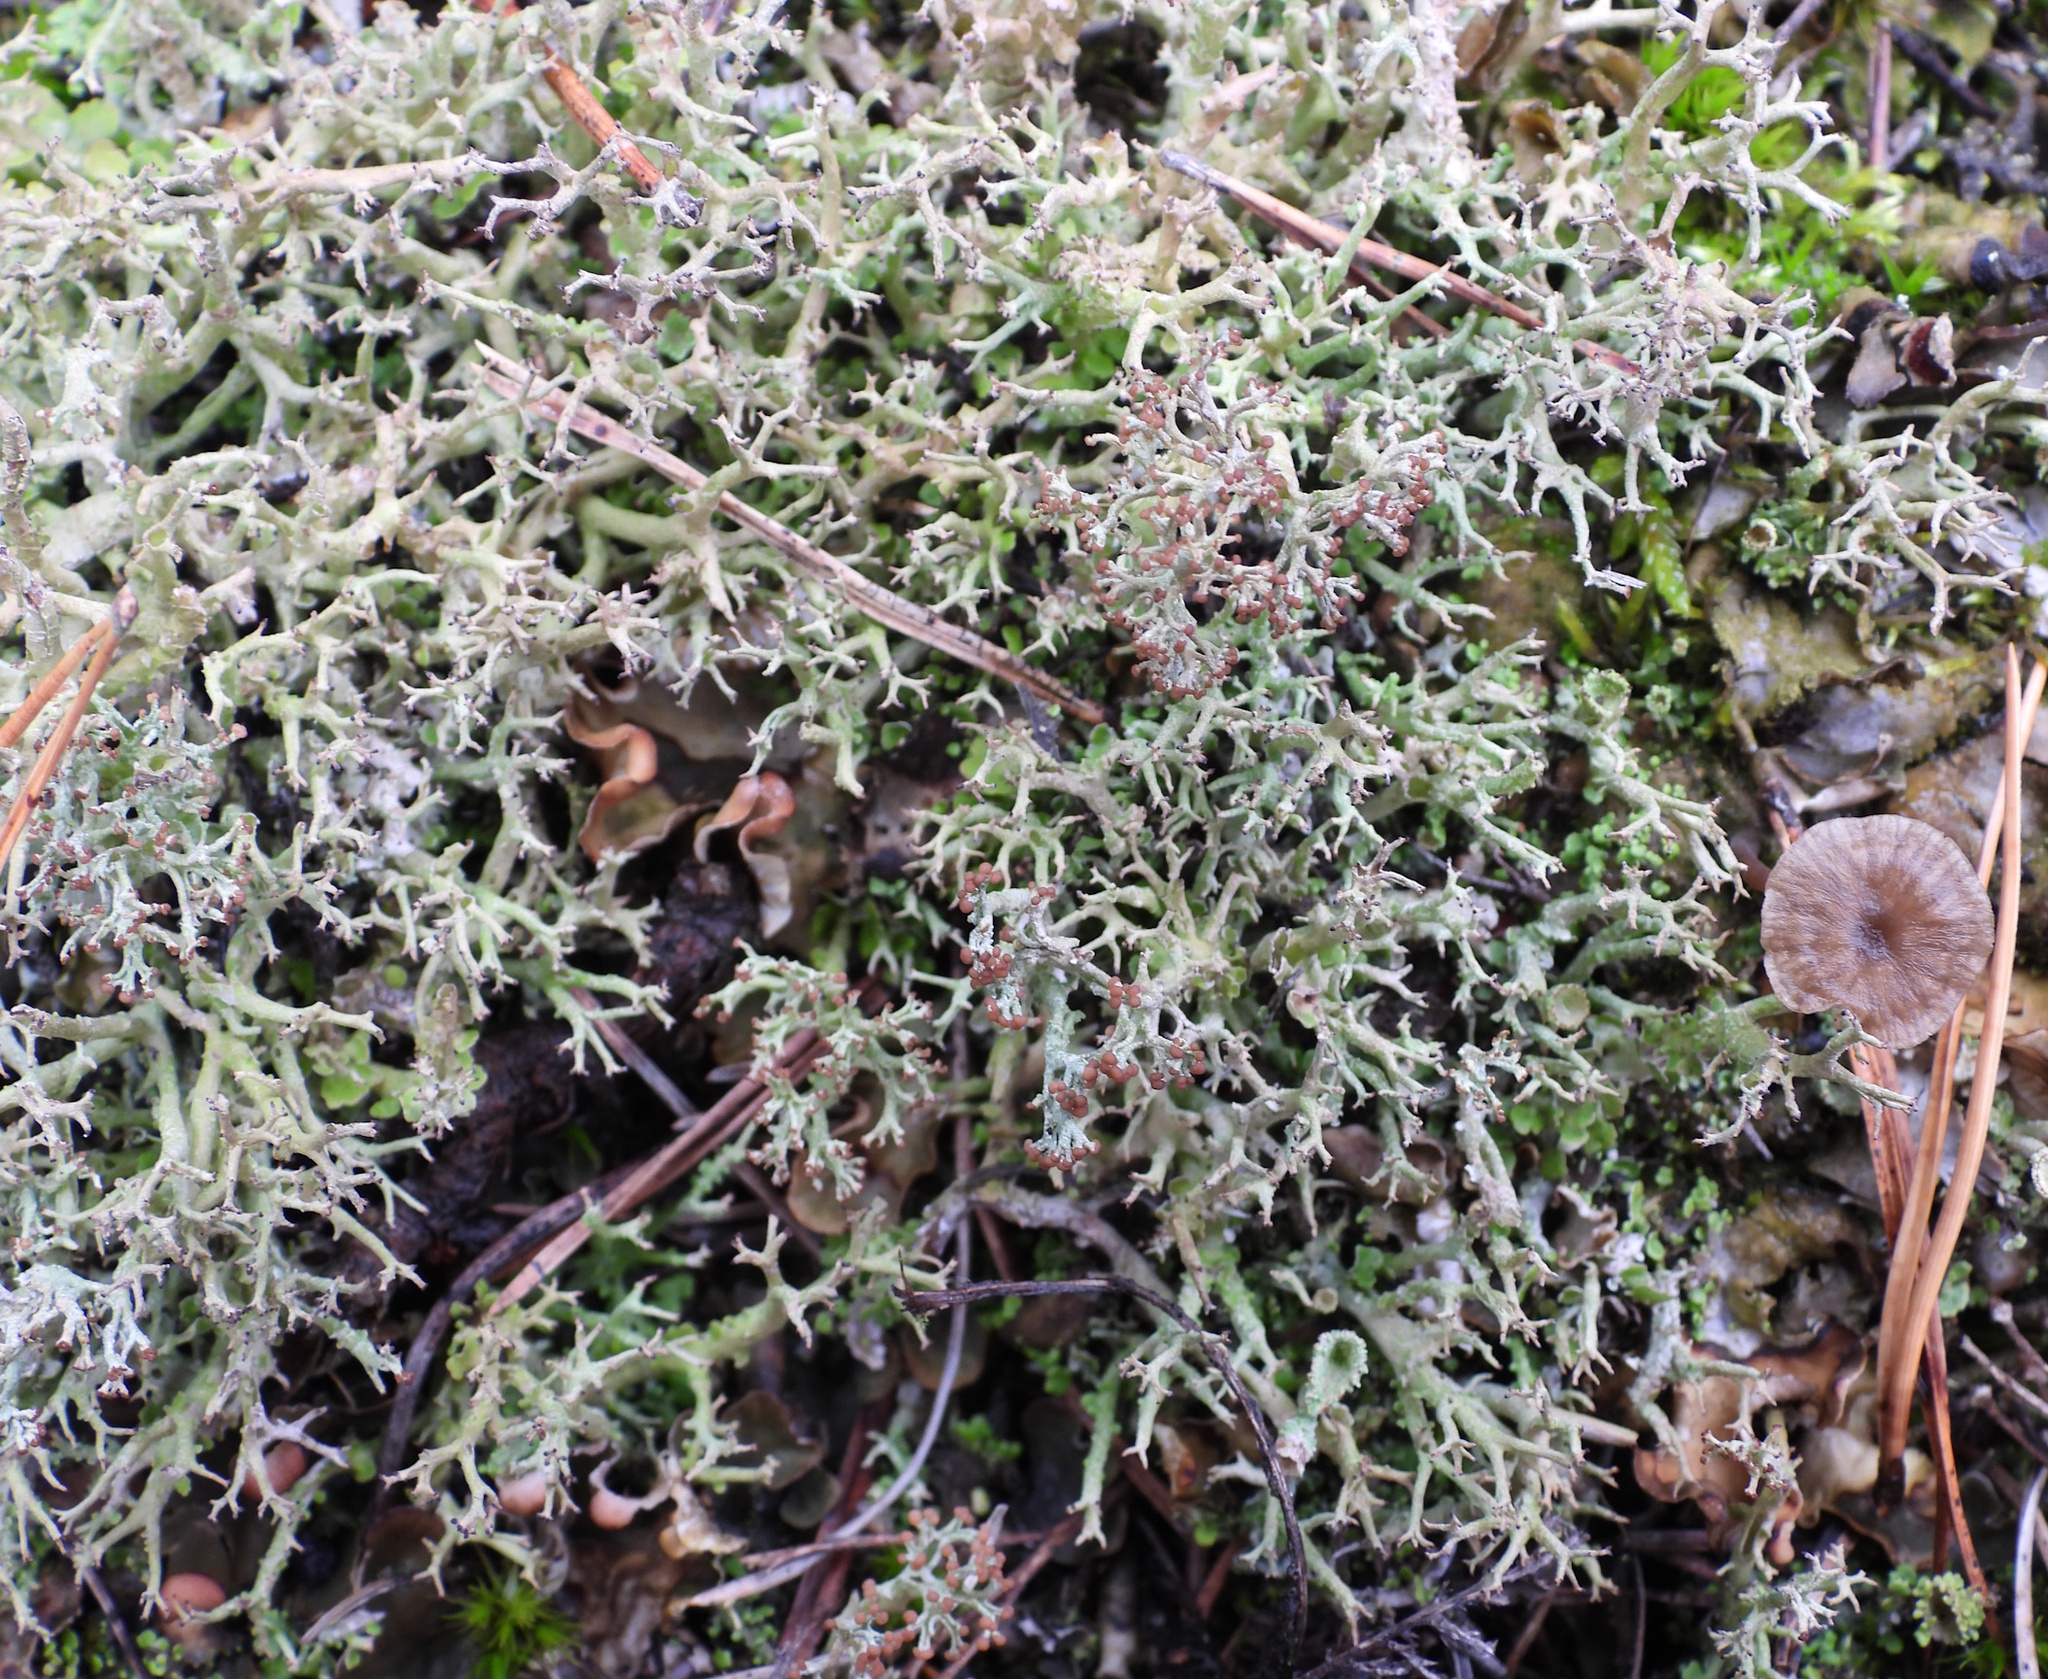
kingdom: Fungi
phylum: Ascomycota
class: Lecanoromycetes
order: Lecanorales
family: Cladoniaceae
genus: Cladonia
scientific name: Cladonia furcata
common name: Many-forked cladonia
